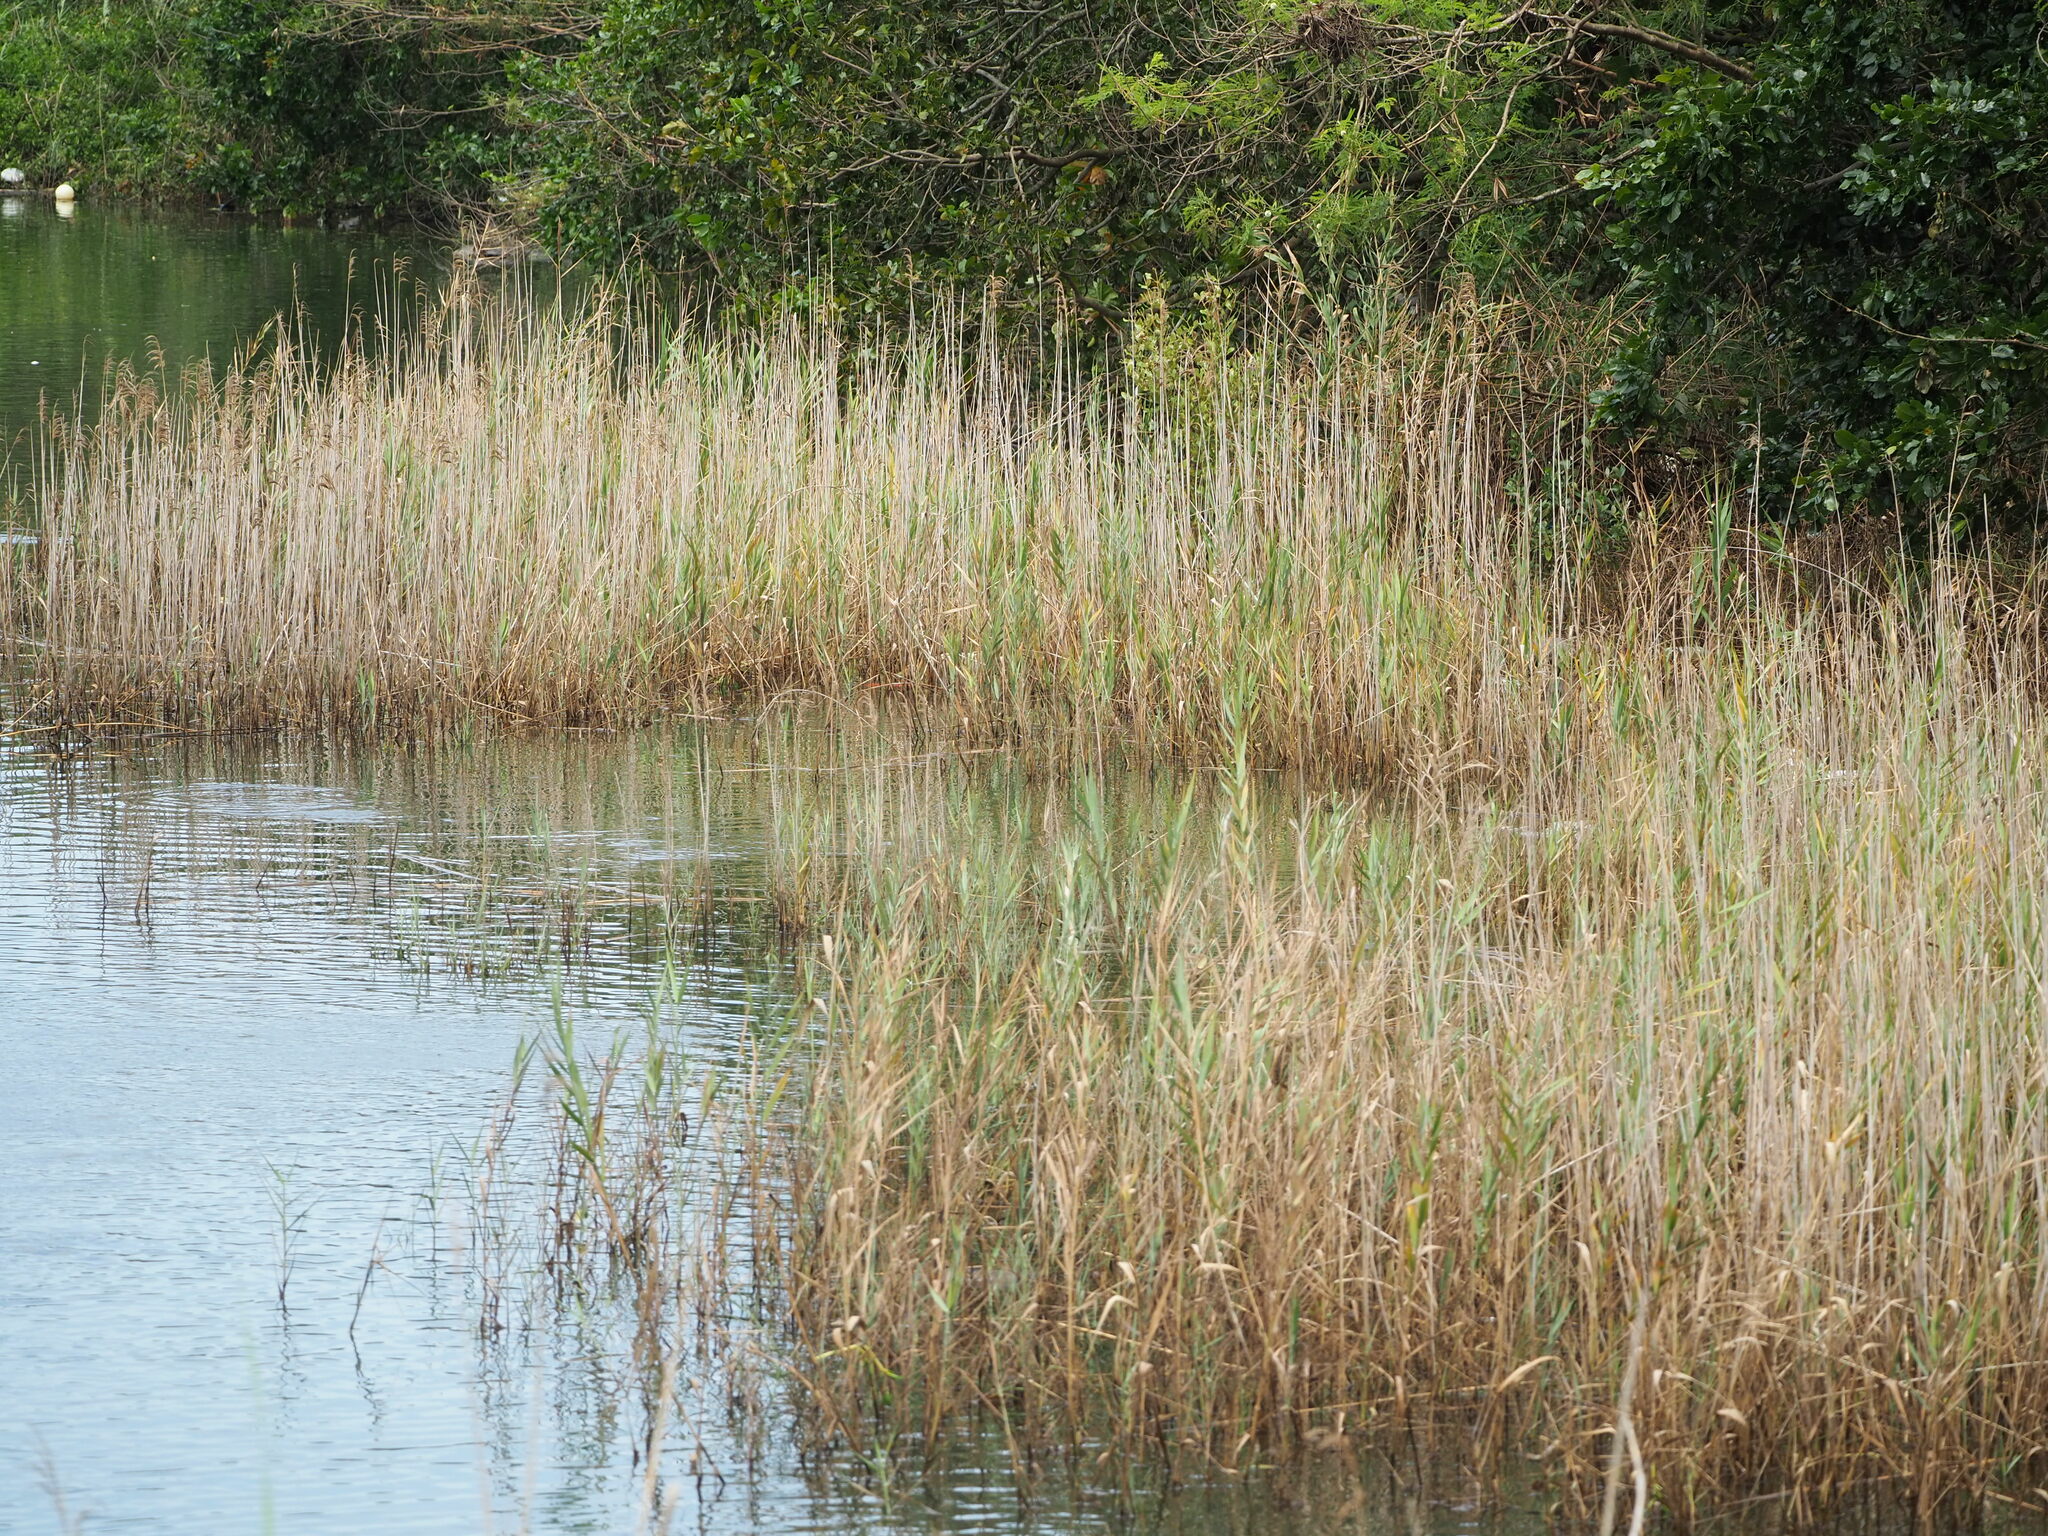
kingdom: Plantae
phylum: Tracheophyta
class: Liliopsida
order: Poales
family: Poaceae
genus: Phragmites
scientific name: Phragmites australis
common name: Common reed
